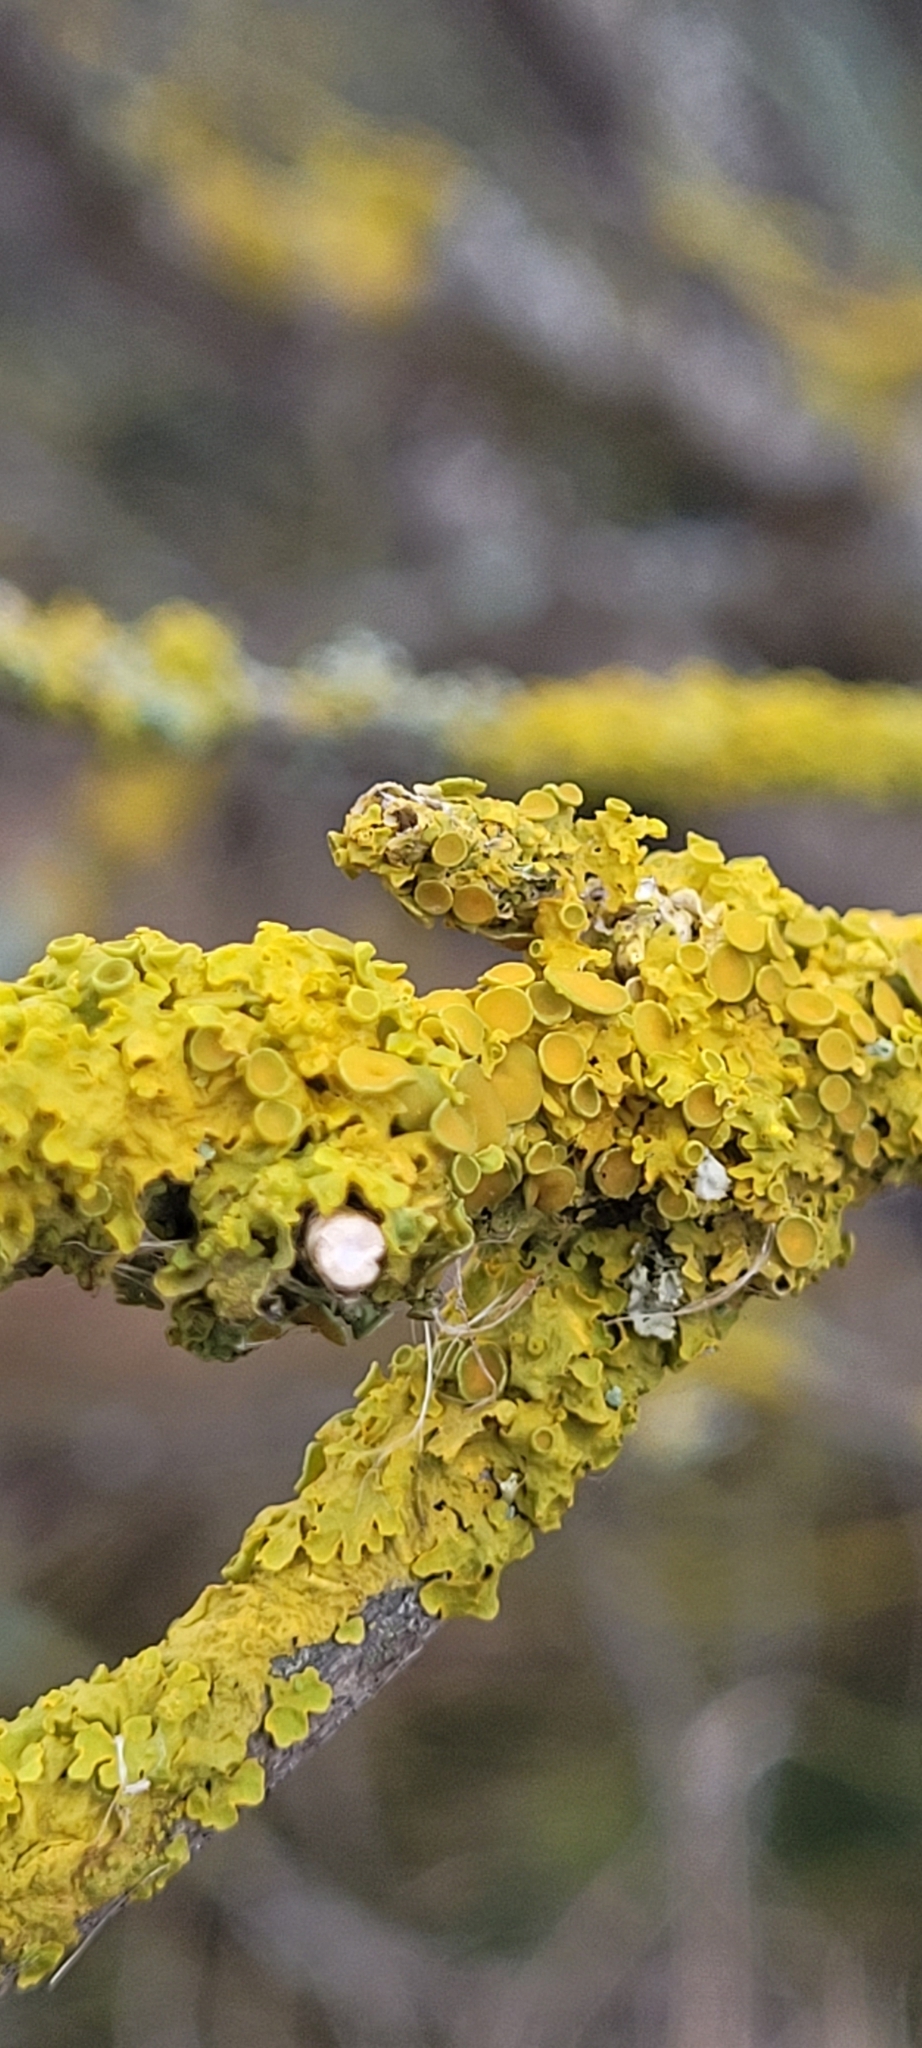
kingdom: Fungi
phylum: Ascomycota
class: Lecanoromycetes
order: Teloschistales
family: Teloschistaceae
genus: Xanthoria
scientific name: Xanthoria parietina
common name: Common orange lichen
